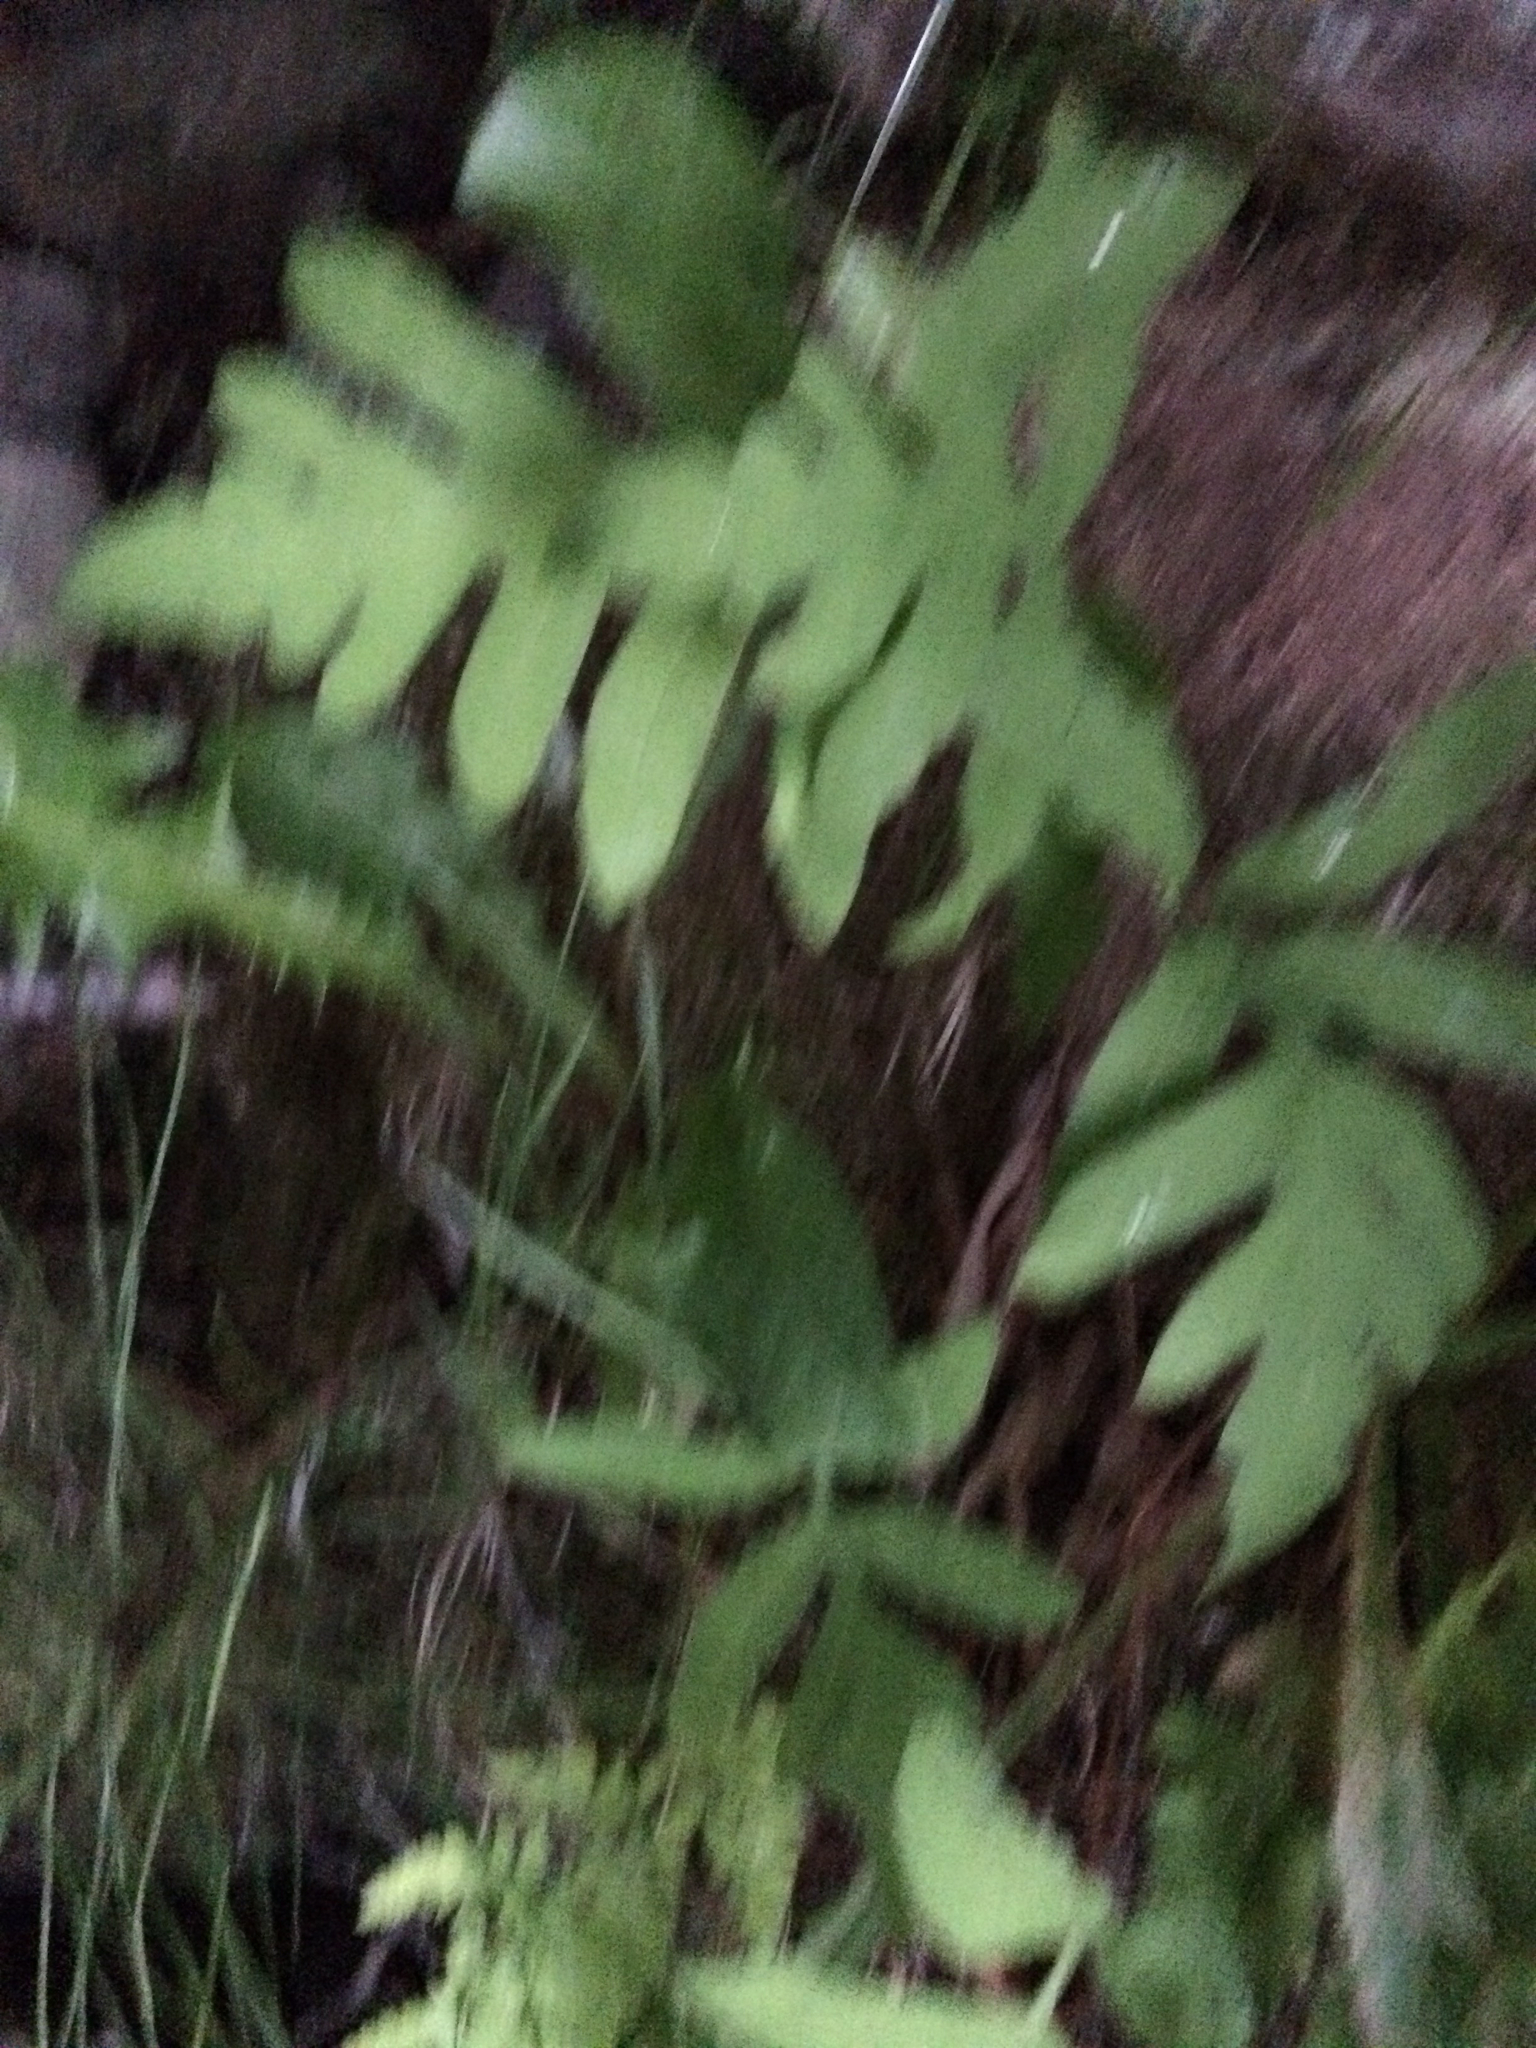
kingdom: Plantae
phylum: Tracheophyta
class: Polypodiopsida
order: Polypodiales
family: Onocleaceae
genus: Onoclea
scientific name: Onoclea sensibilis
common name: Sensitive fern
